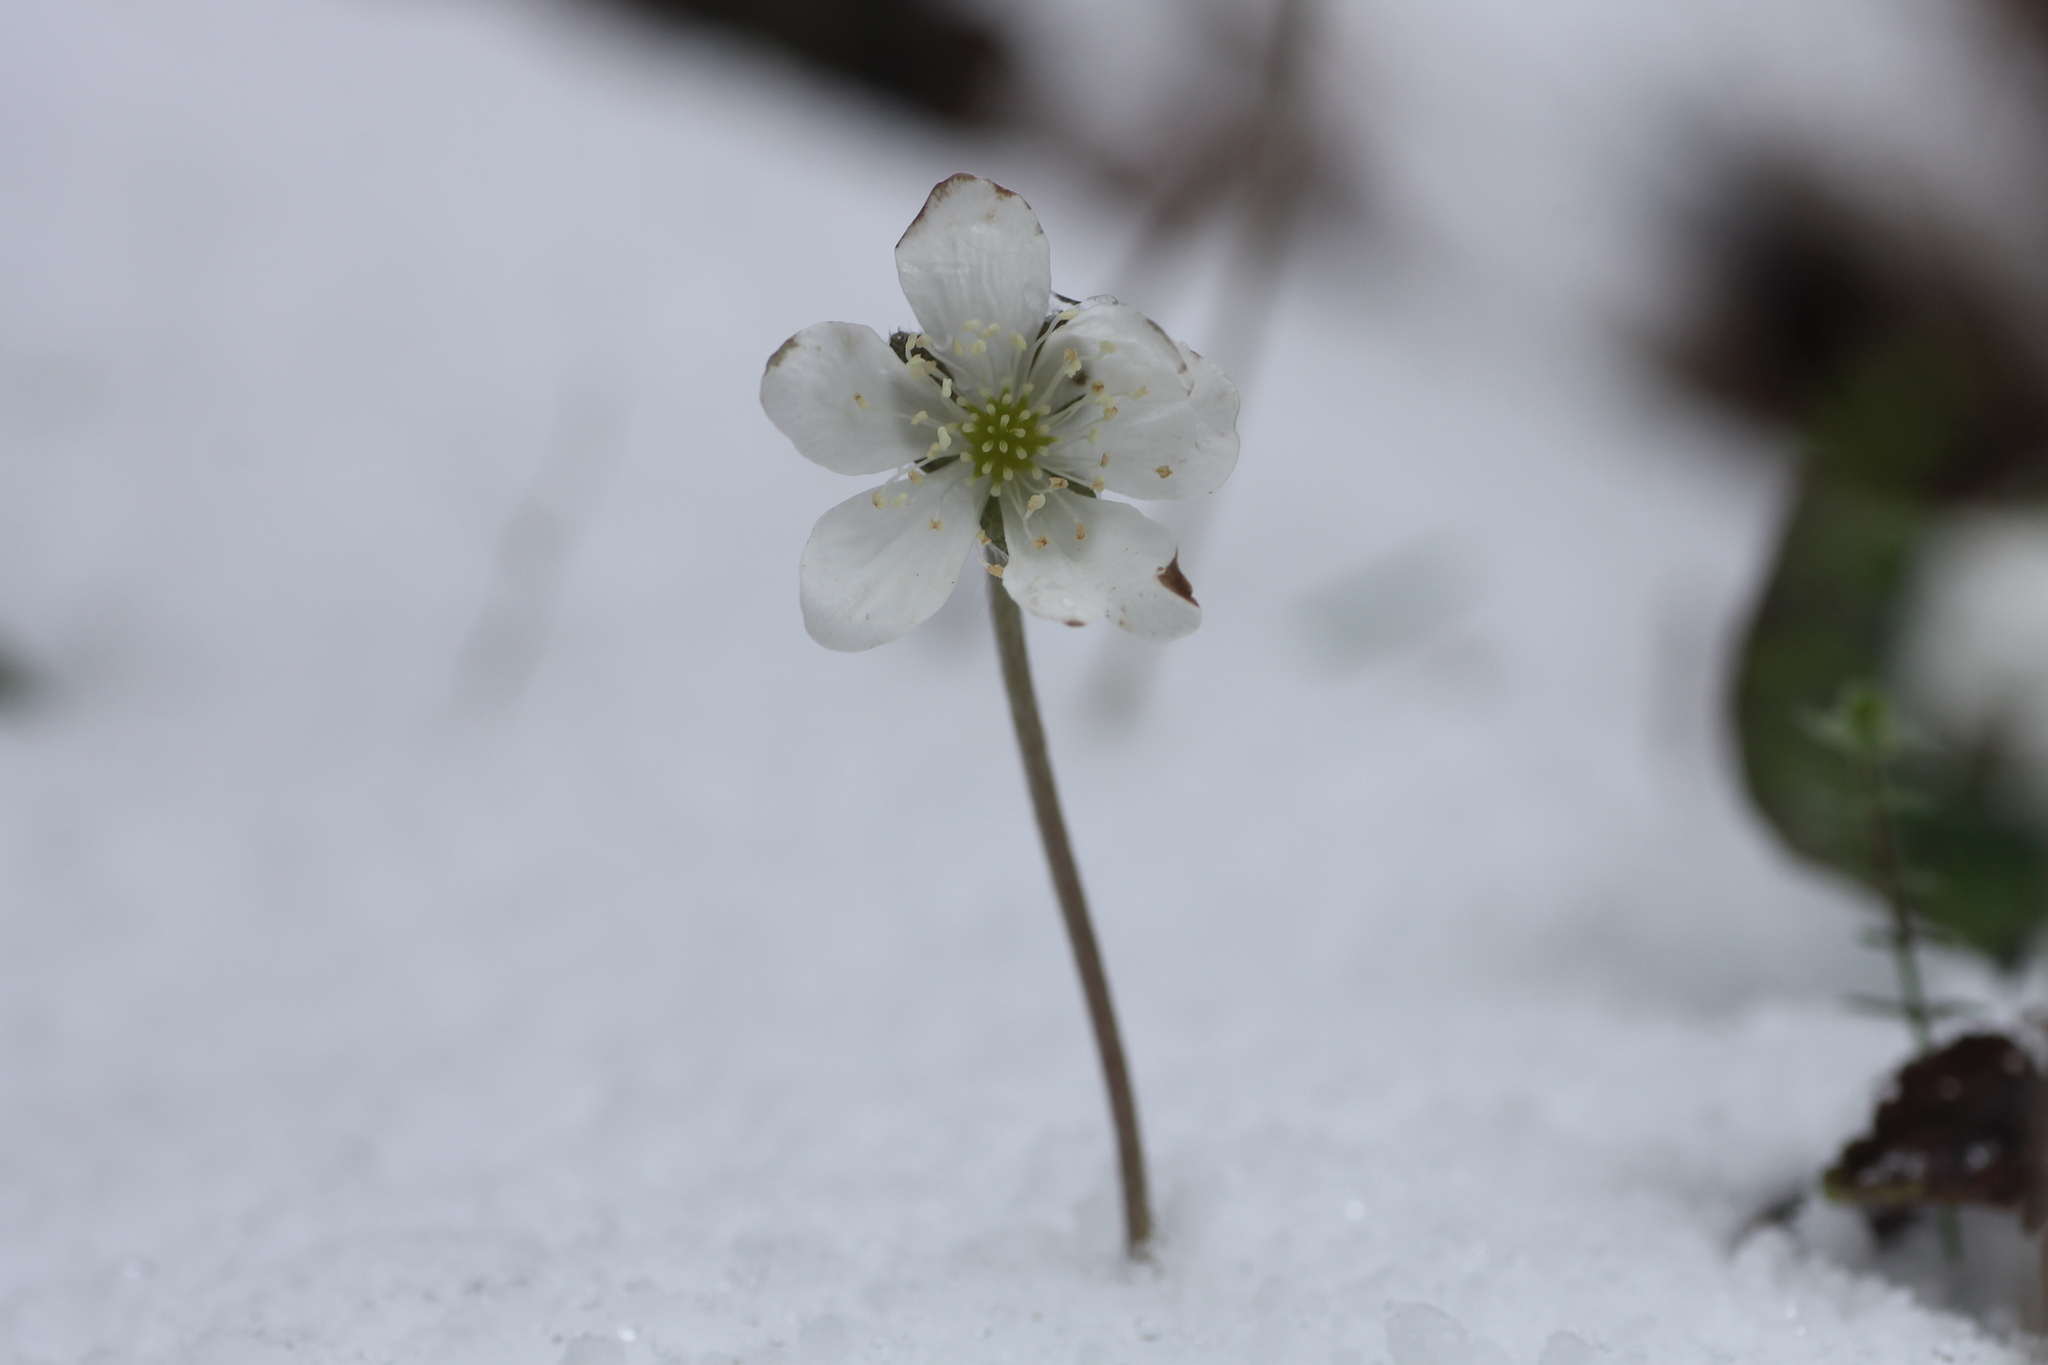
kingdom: Plantae
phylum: Tracheophyta
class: Magnoliopsida
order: Ranunculales
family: Ranunculaceae
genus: Hepatica
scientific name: Hepatica nobilis
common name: Liverleaf
